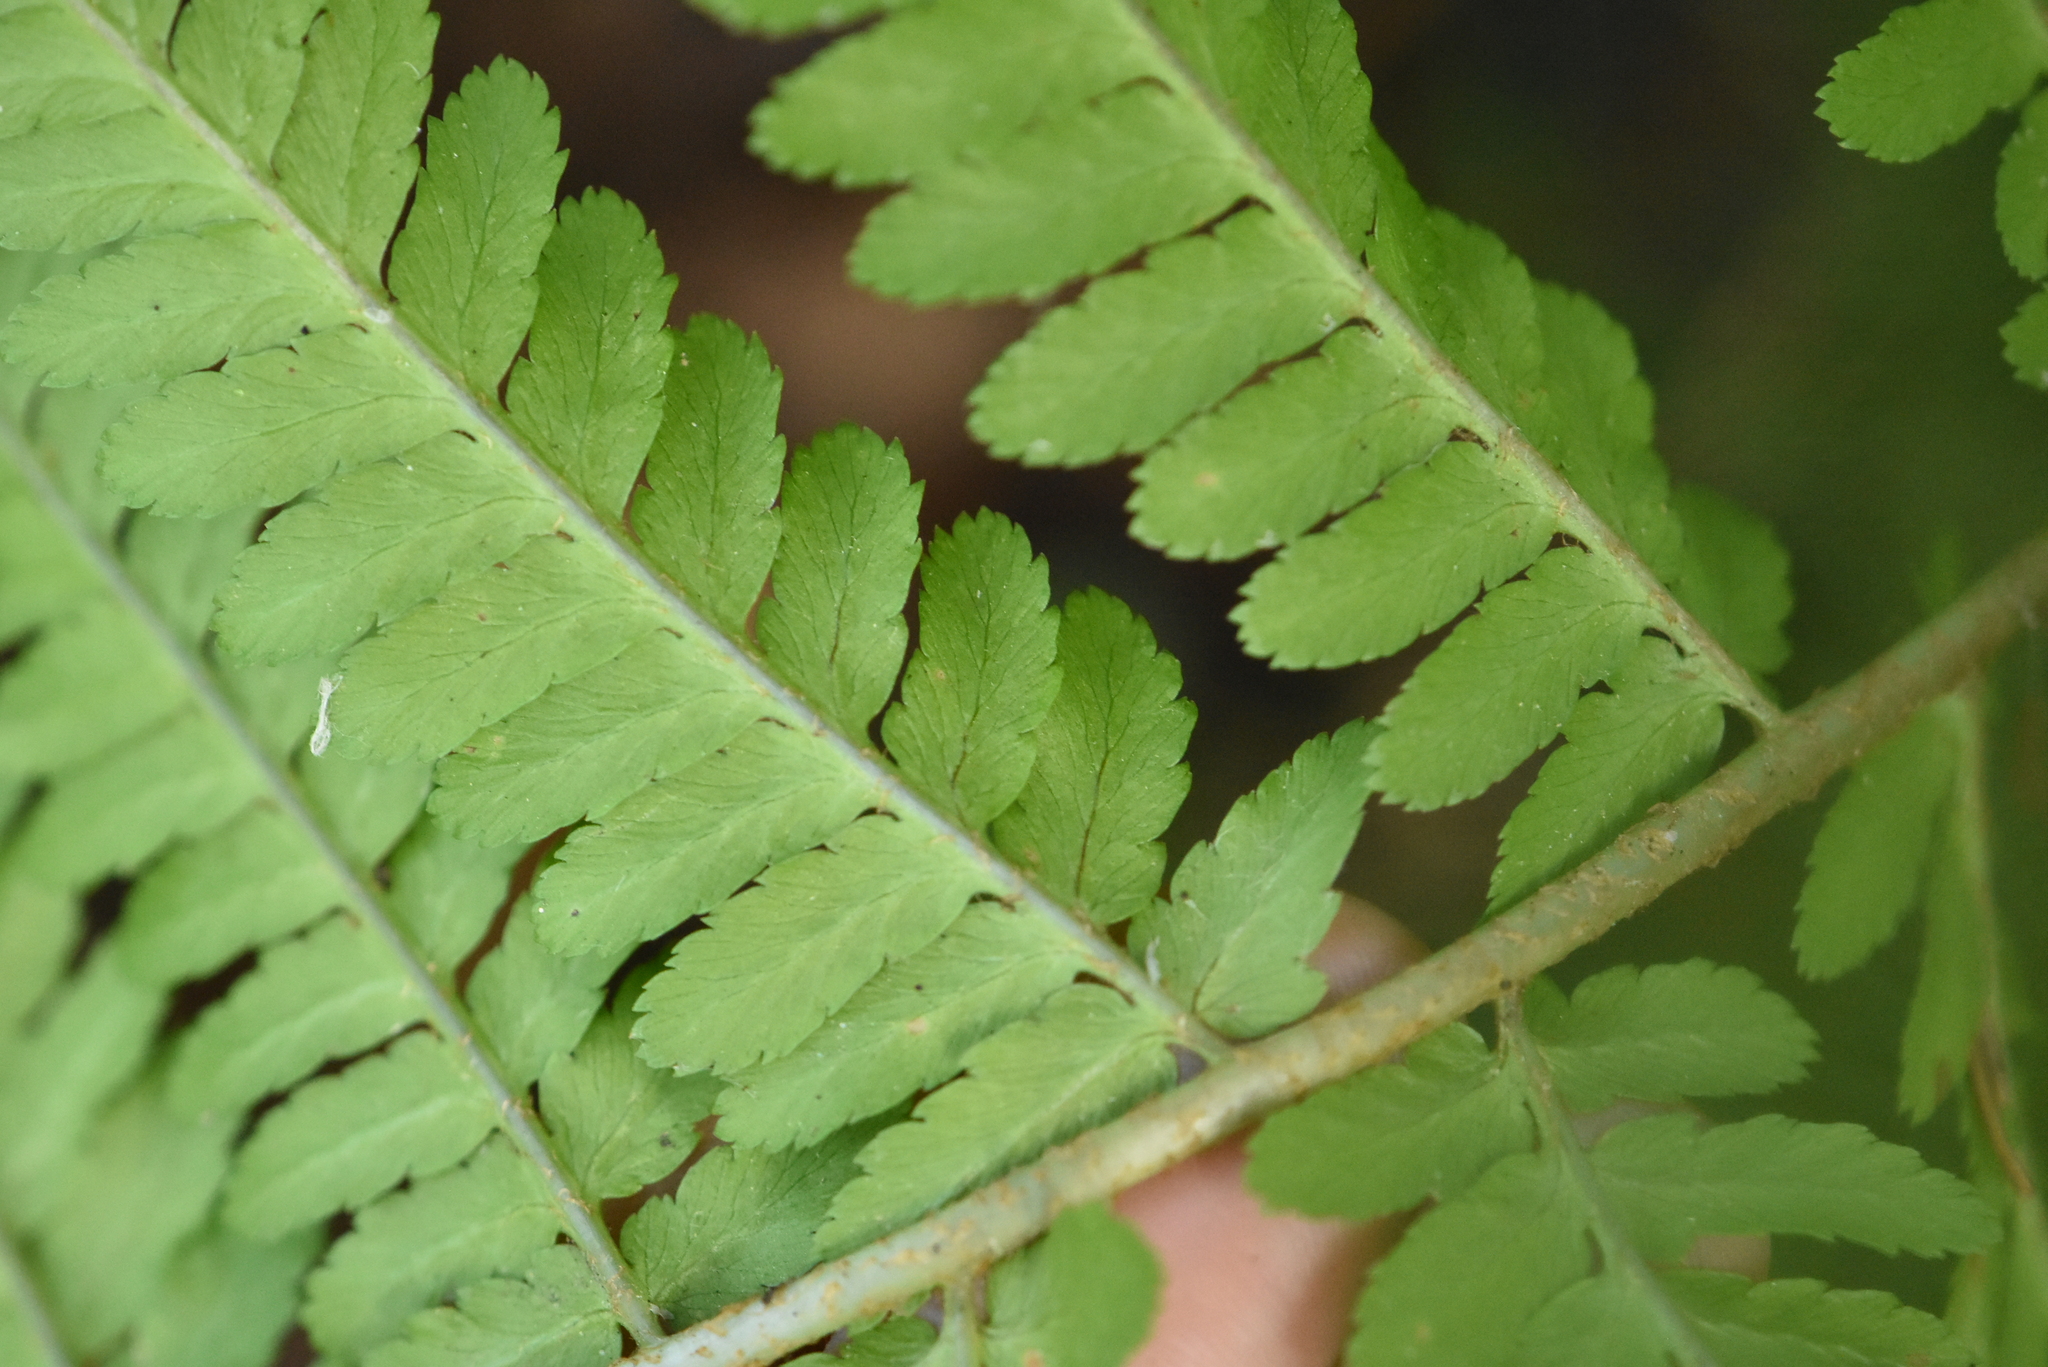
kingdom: Plantae
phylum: Tracheophyta
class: Polypodiopsida
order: Polypodiales
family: Dryopteridaceae
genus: Dryopteris
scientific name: Dryopteris filix-mas
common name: Male fern
